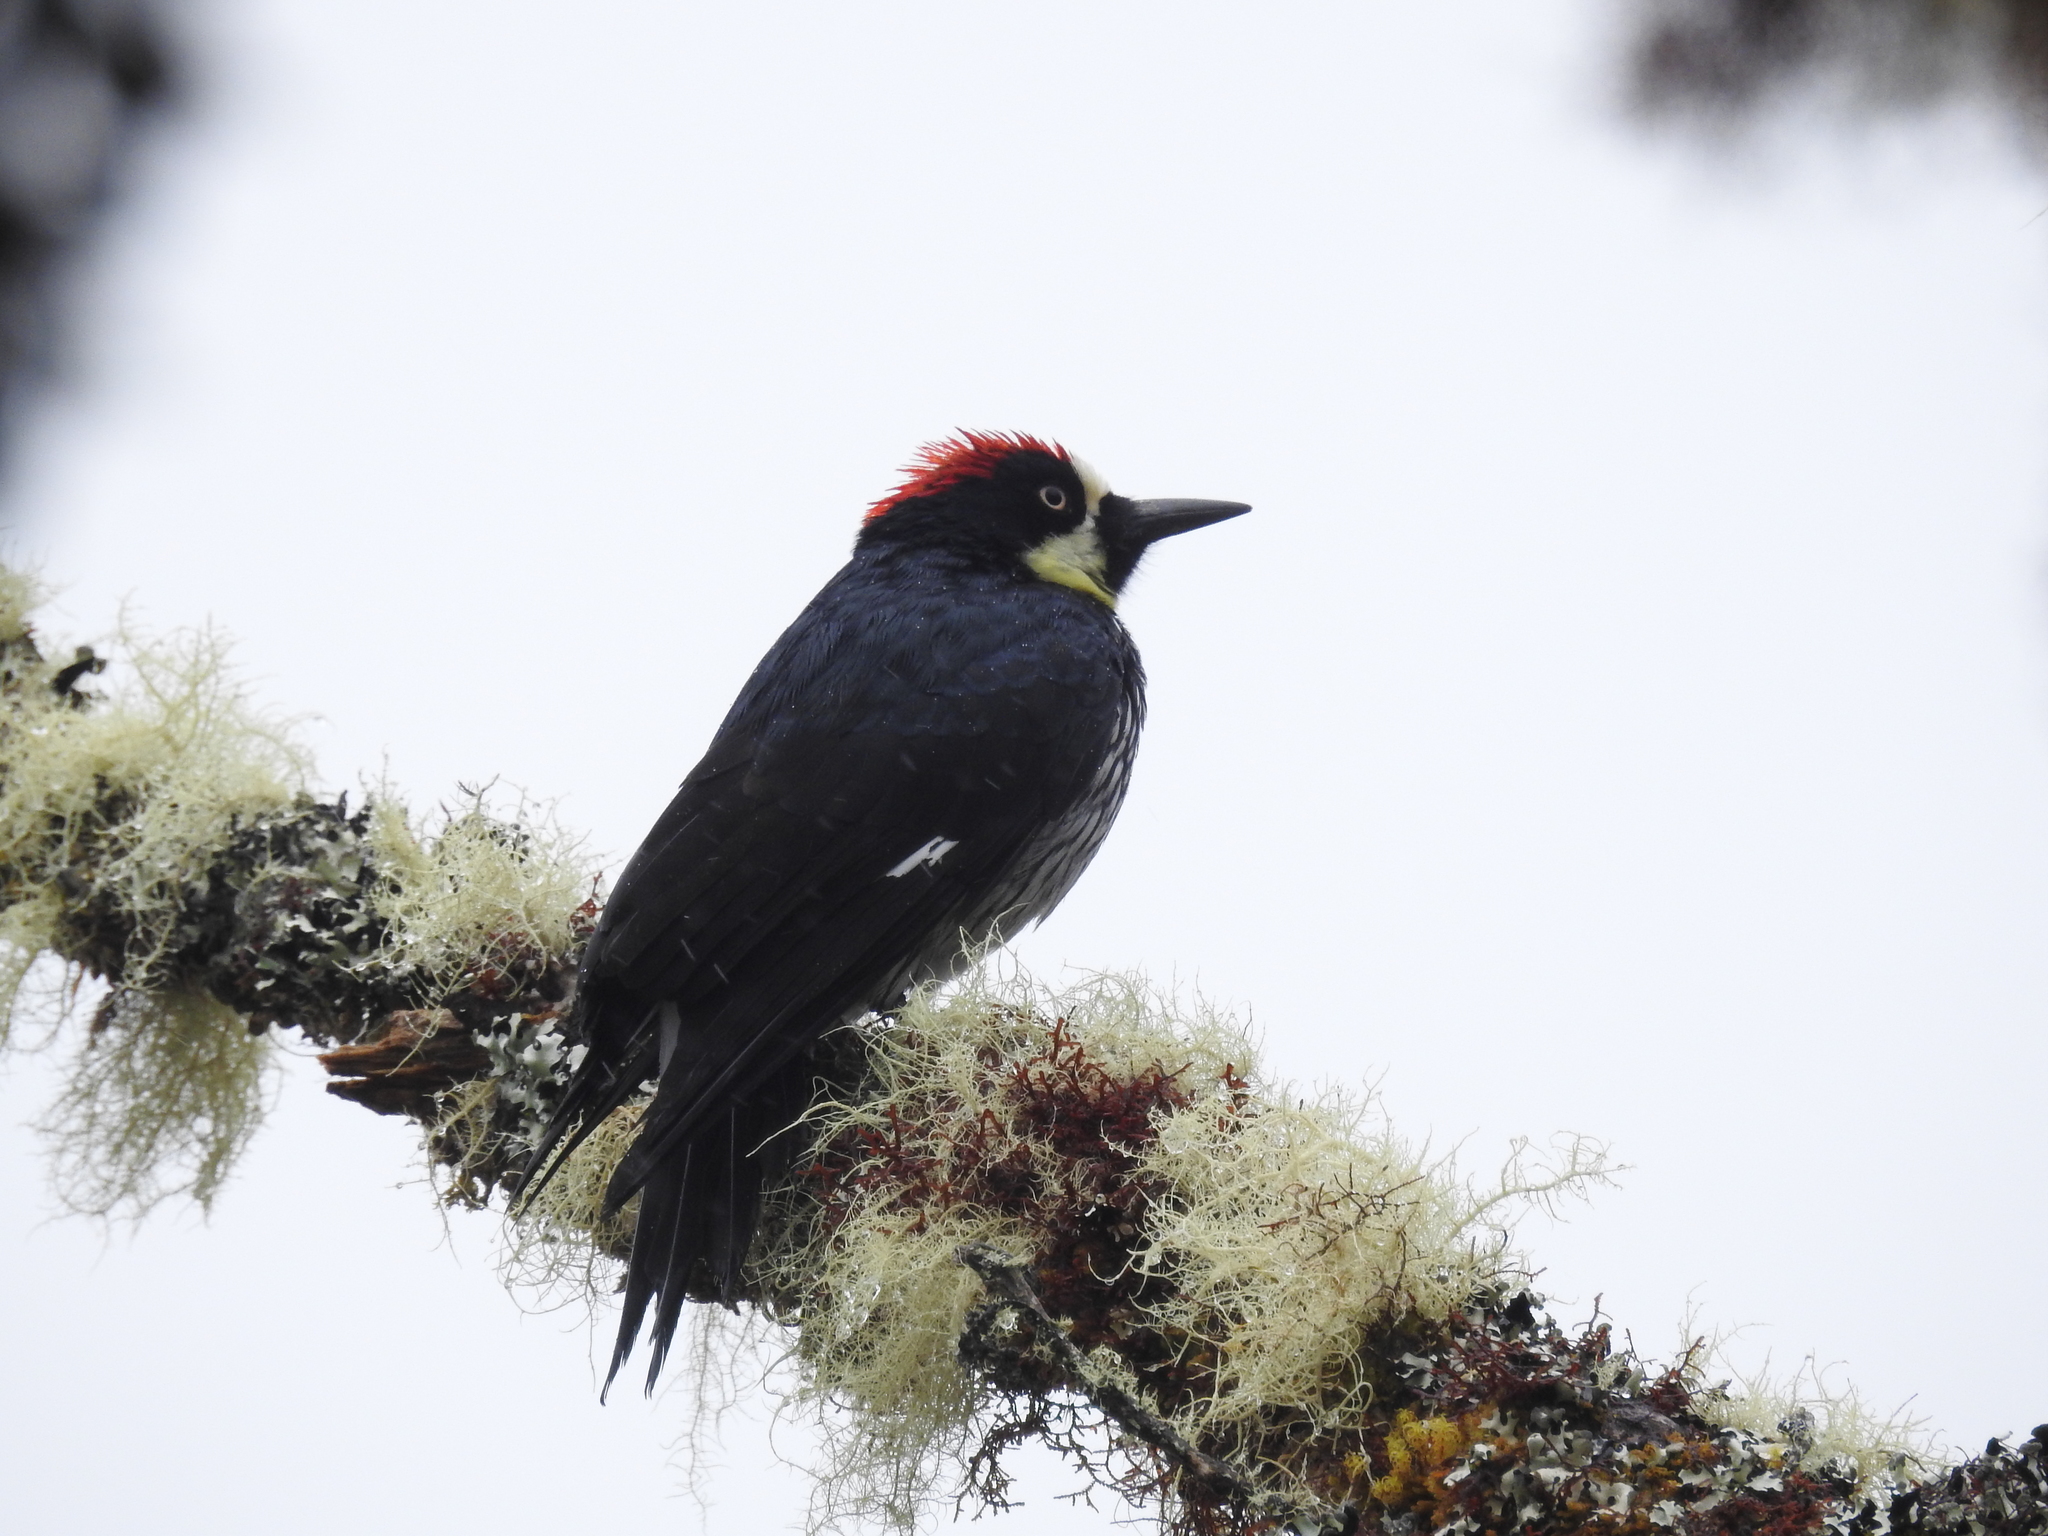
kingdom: Animalia
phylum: Chordata
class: Aves
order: Piciformes
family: Picidae
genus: Melanerpes
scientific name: Melanerpes formicivorus
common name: Acorn woodpecker
